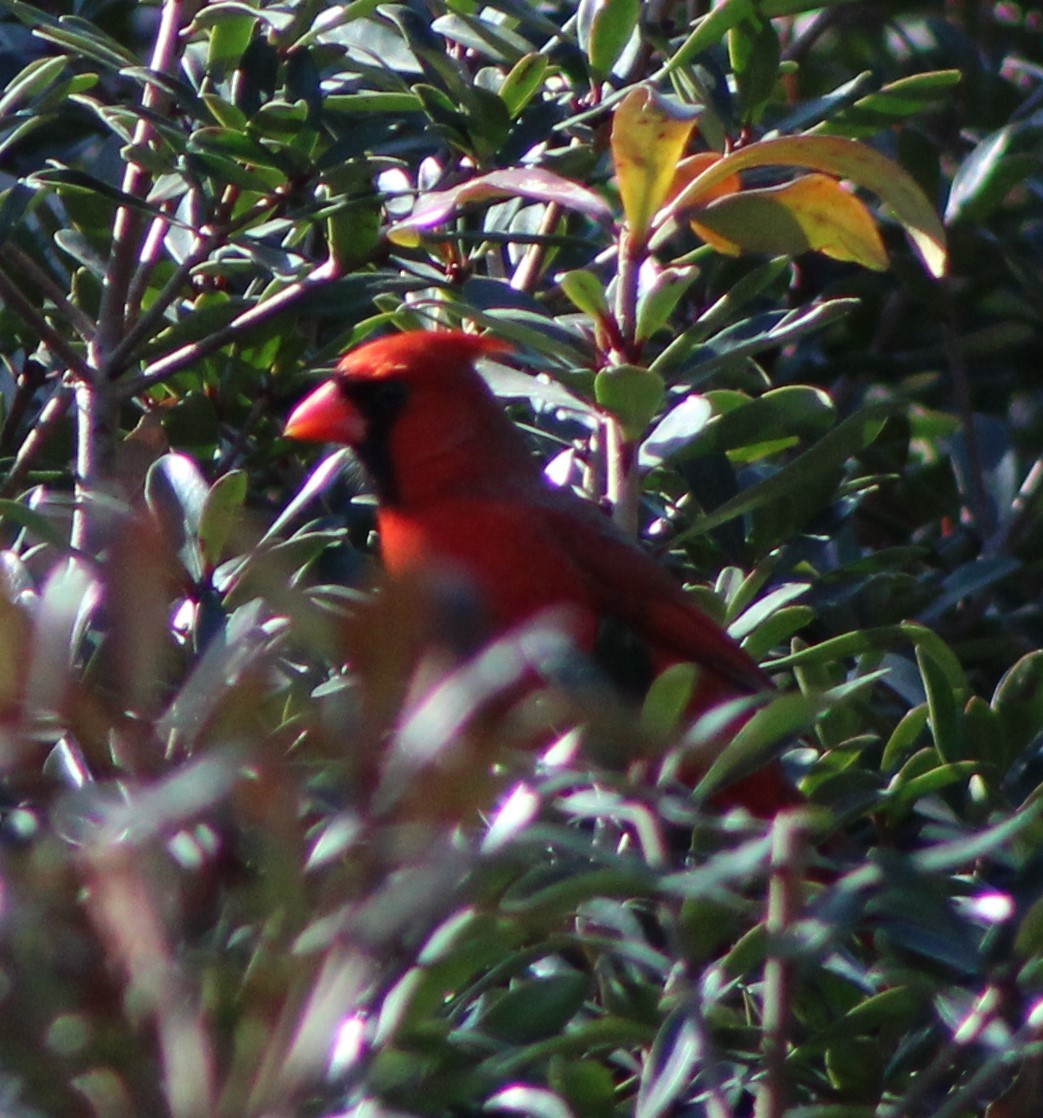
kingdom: Animalia
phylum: Chordata
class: Aves
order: Passeriformes
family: Cardinalidae
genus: Cardinalis
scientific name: Cardinalis cardinalis
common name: Northern cardinal
